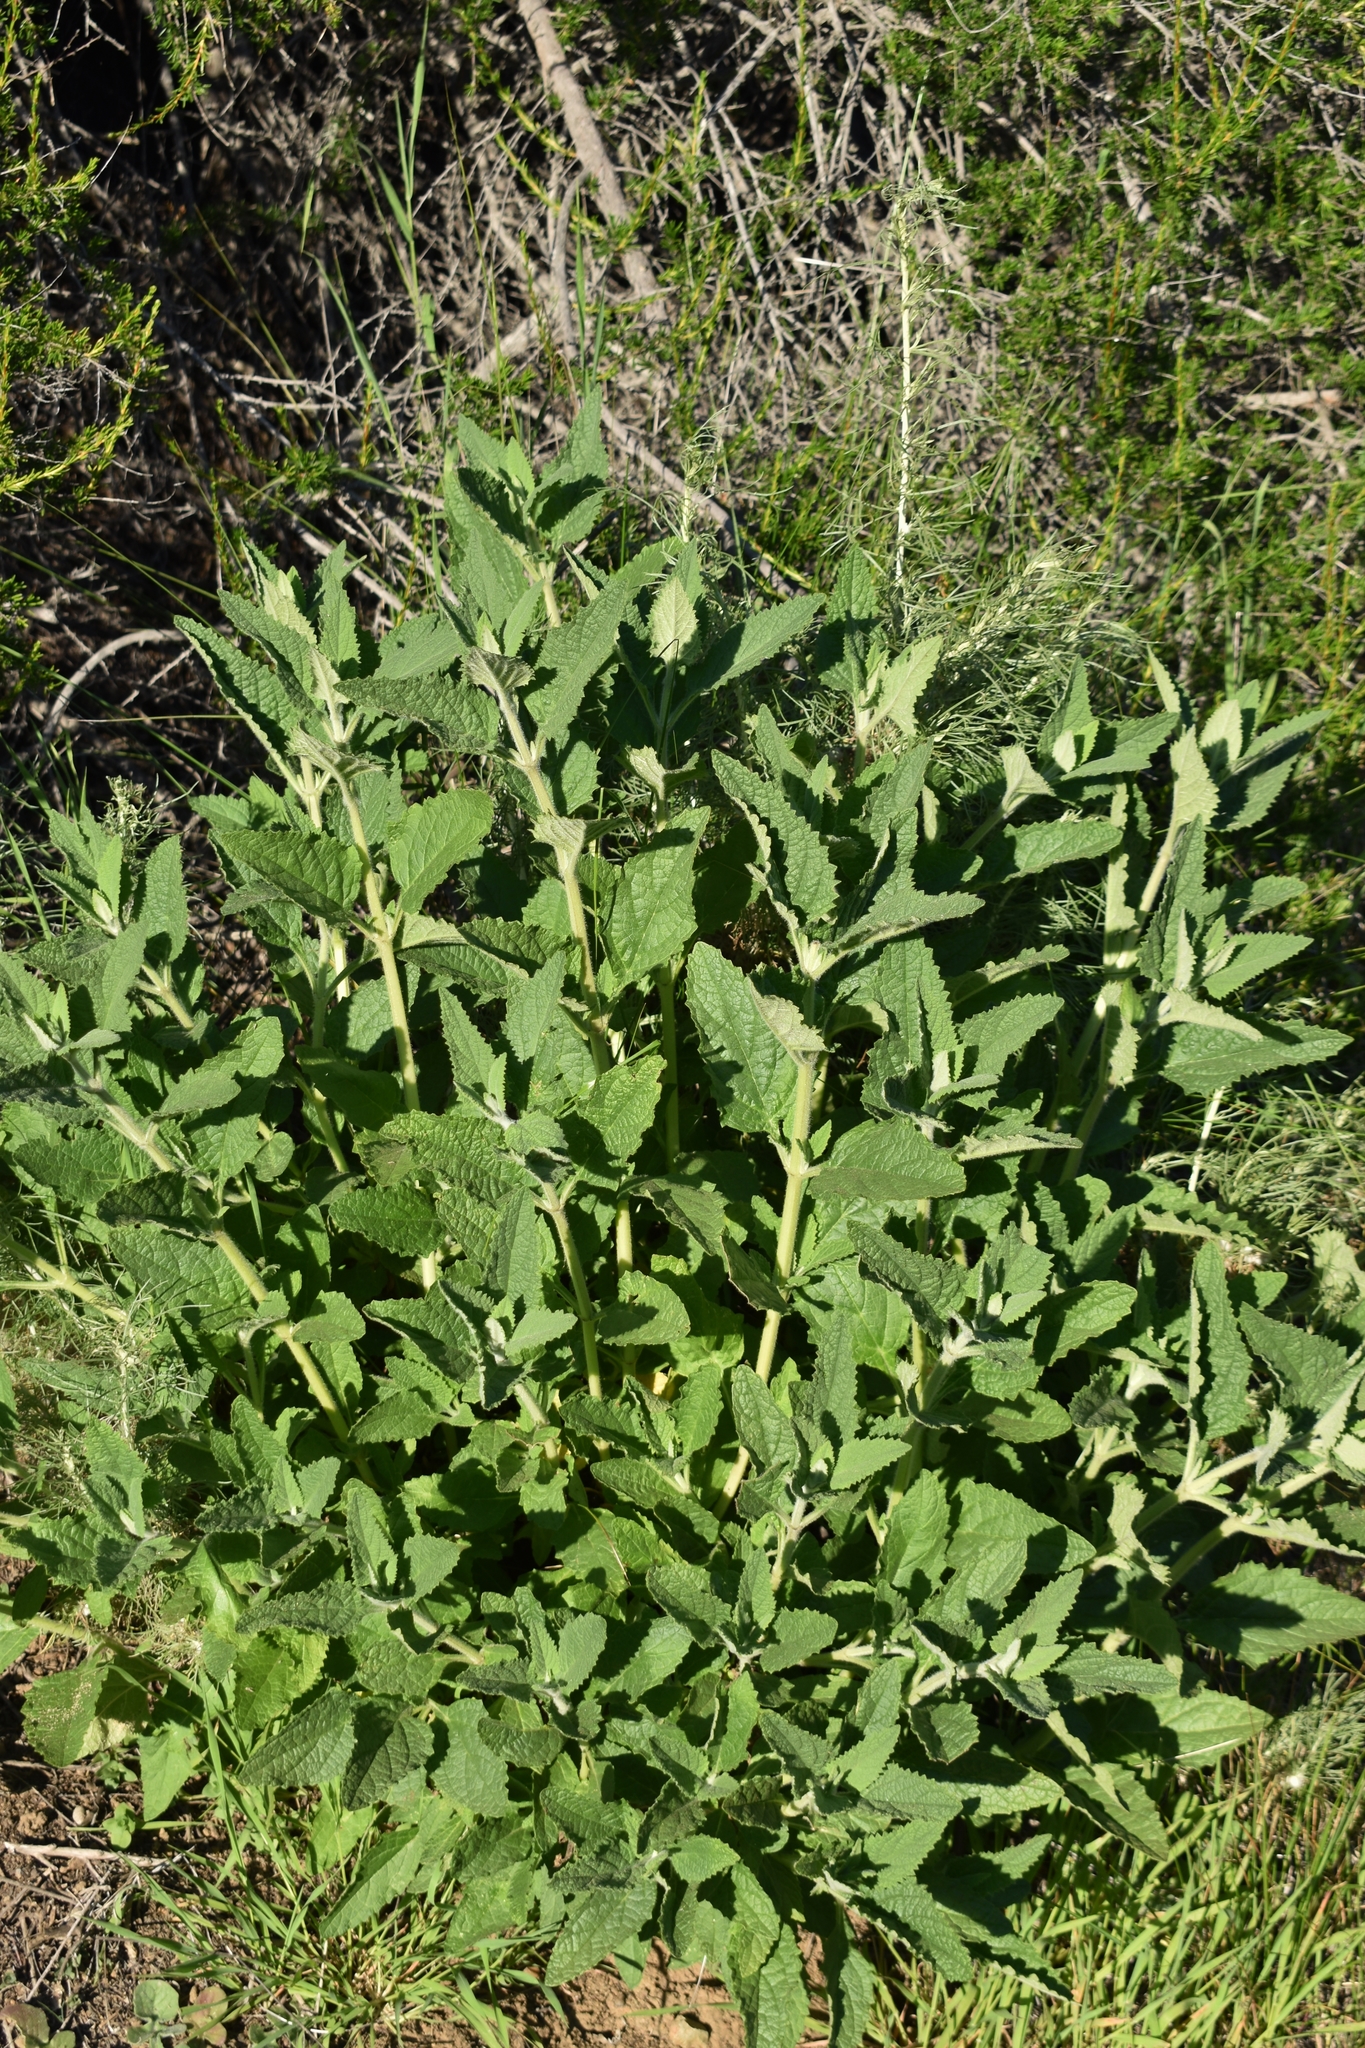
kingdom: Plantae
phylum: Tracheophyta
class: Magnoliopsida
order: Lamiales
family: Lamiaceae
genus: Lepechinia
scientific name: Lepechinia calycina
